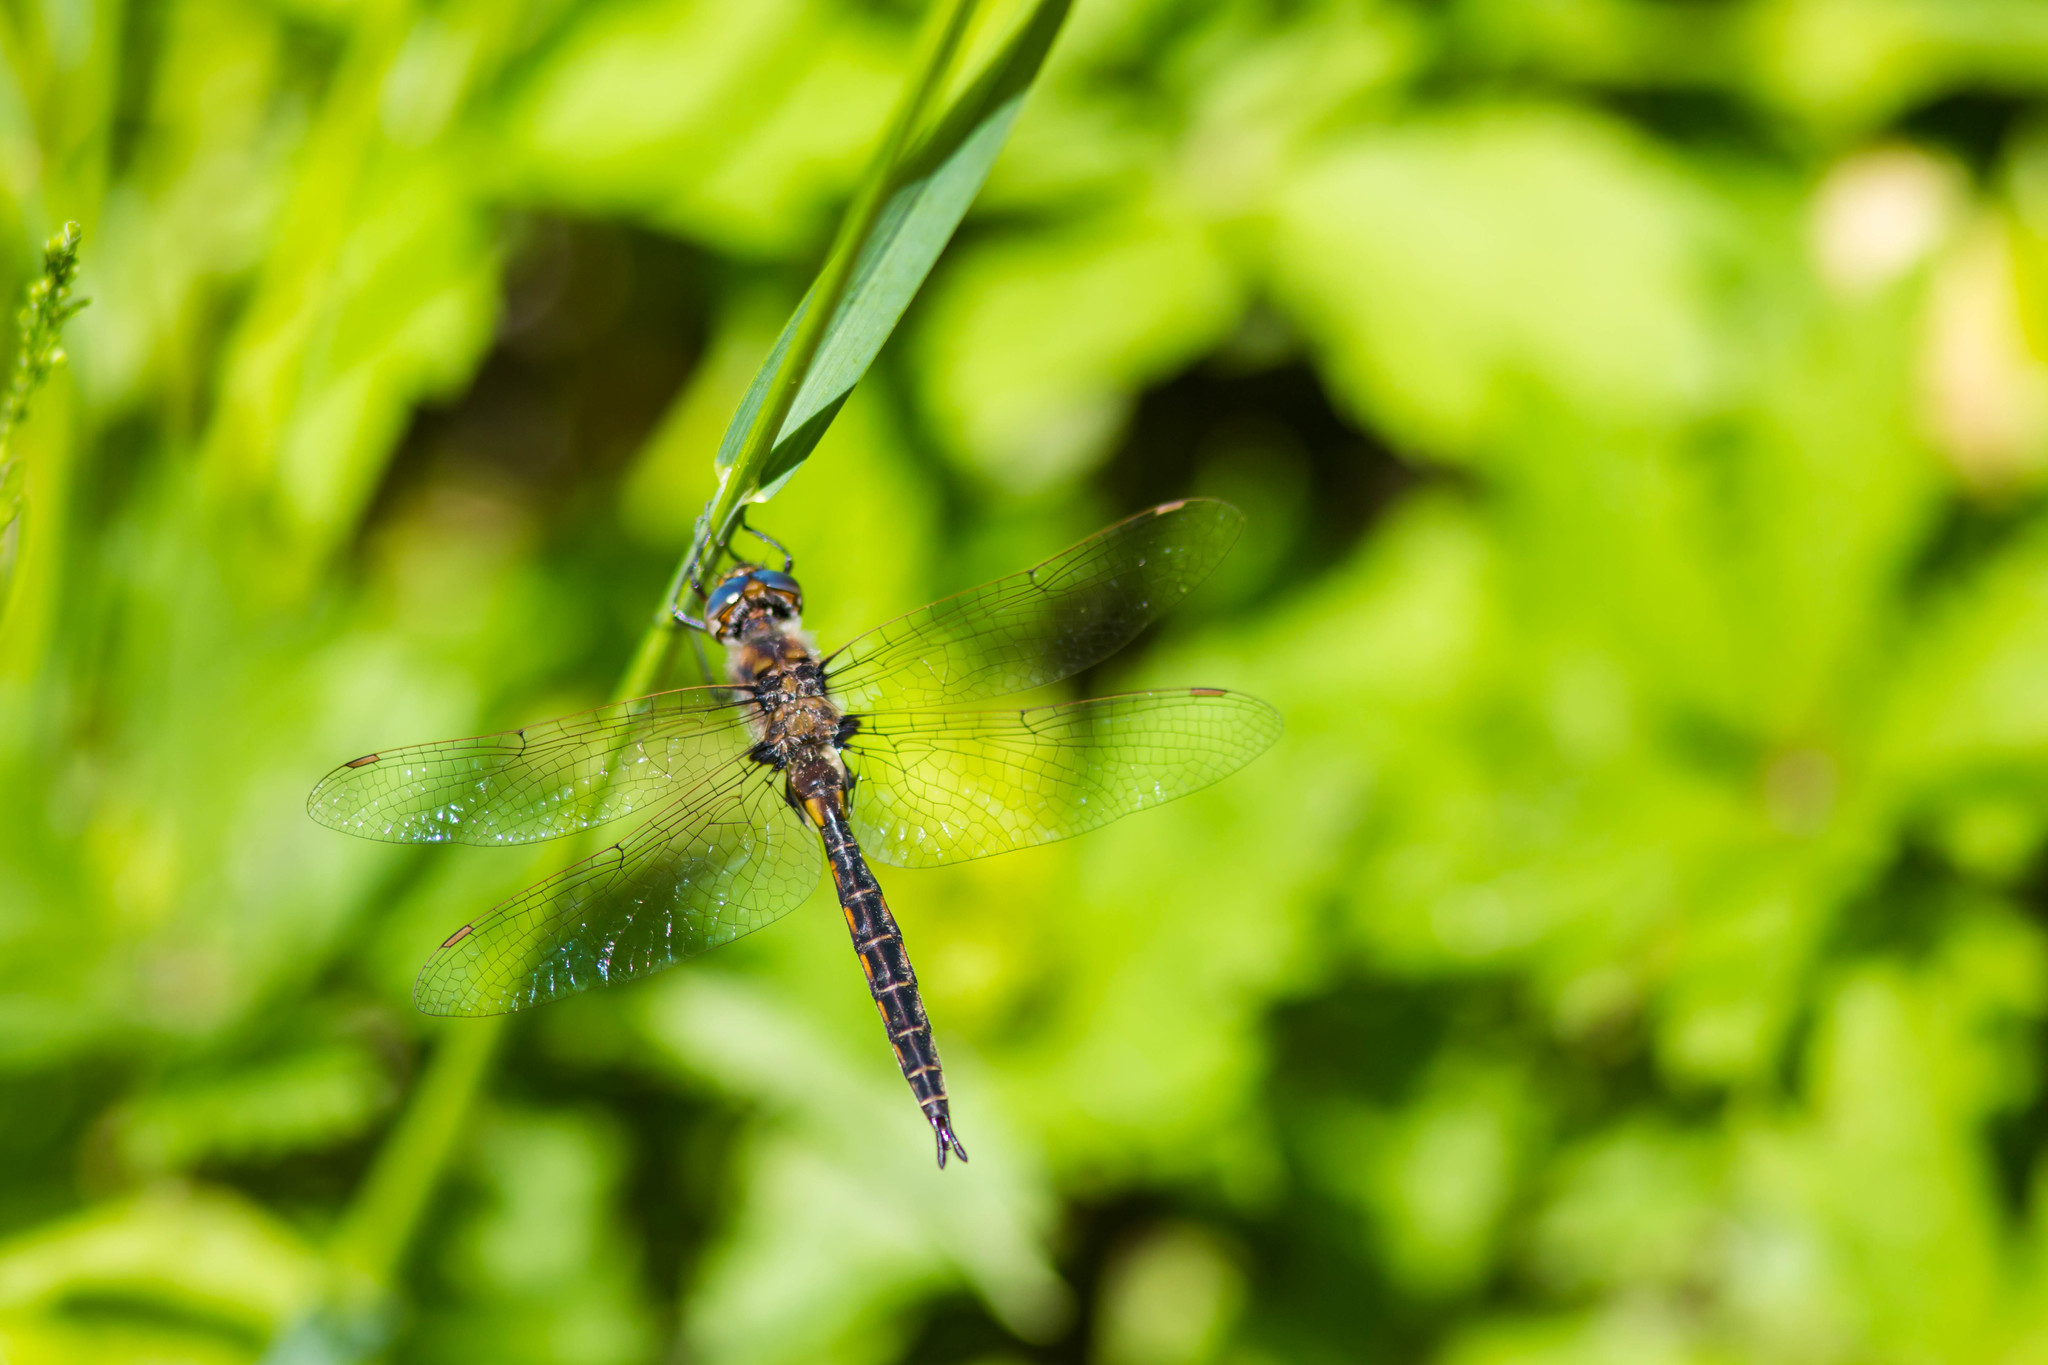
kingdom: Animalia
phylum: Arthropoda
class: Insecta
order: Odonata
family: Corduliidae
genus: Epitheca
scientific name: Epitheca costalis
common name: Slender baskettail
